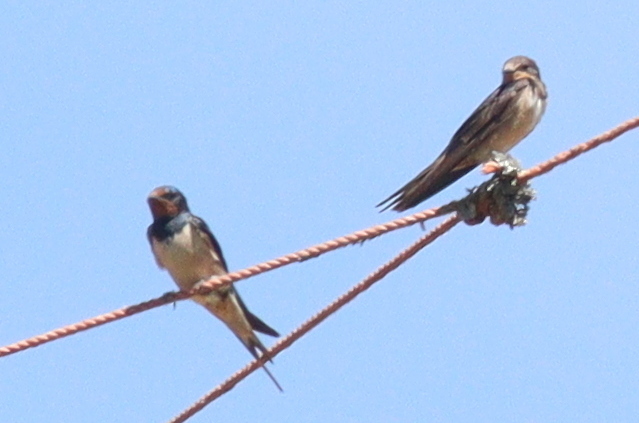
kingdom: Animalia
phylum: Chordata
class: Aves
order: Passeriformes
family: Hirundinidae
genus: Hirundo
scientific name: Hirundo rustica
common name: Barn swallow
